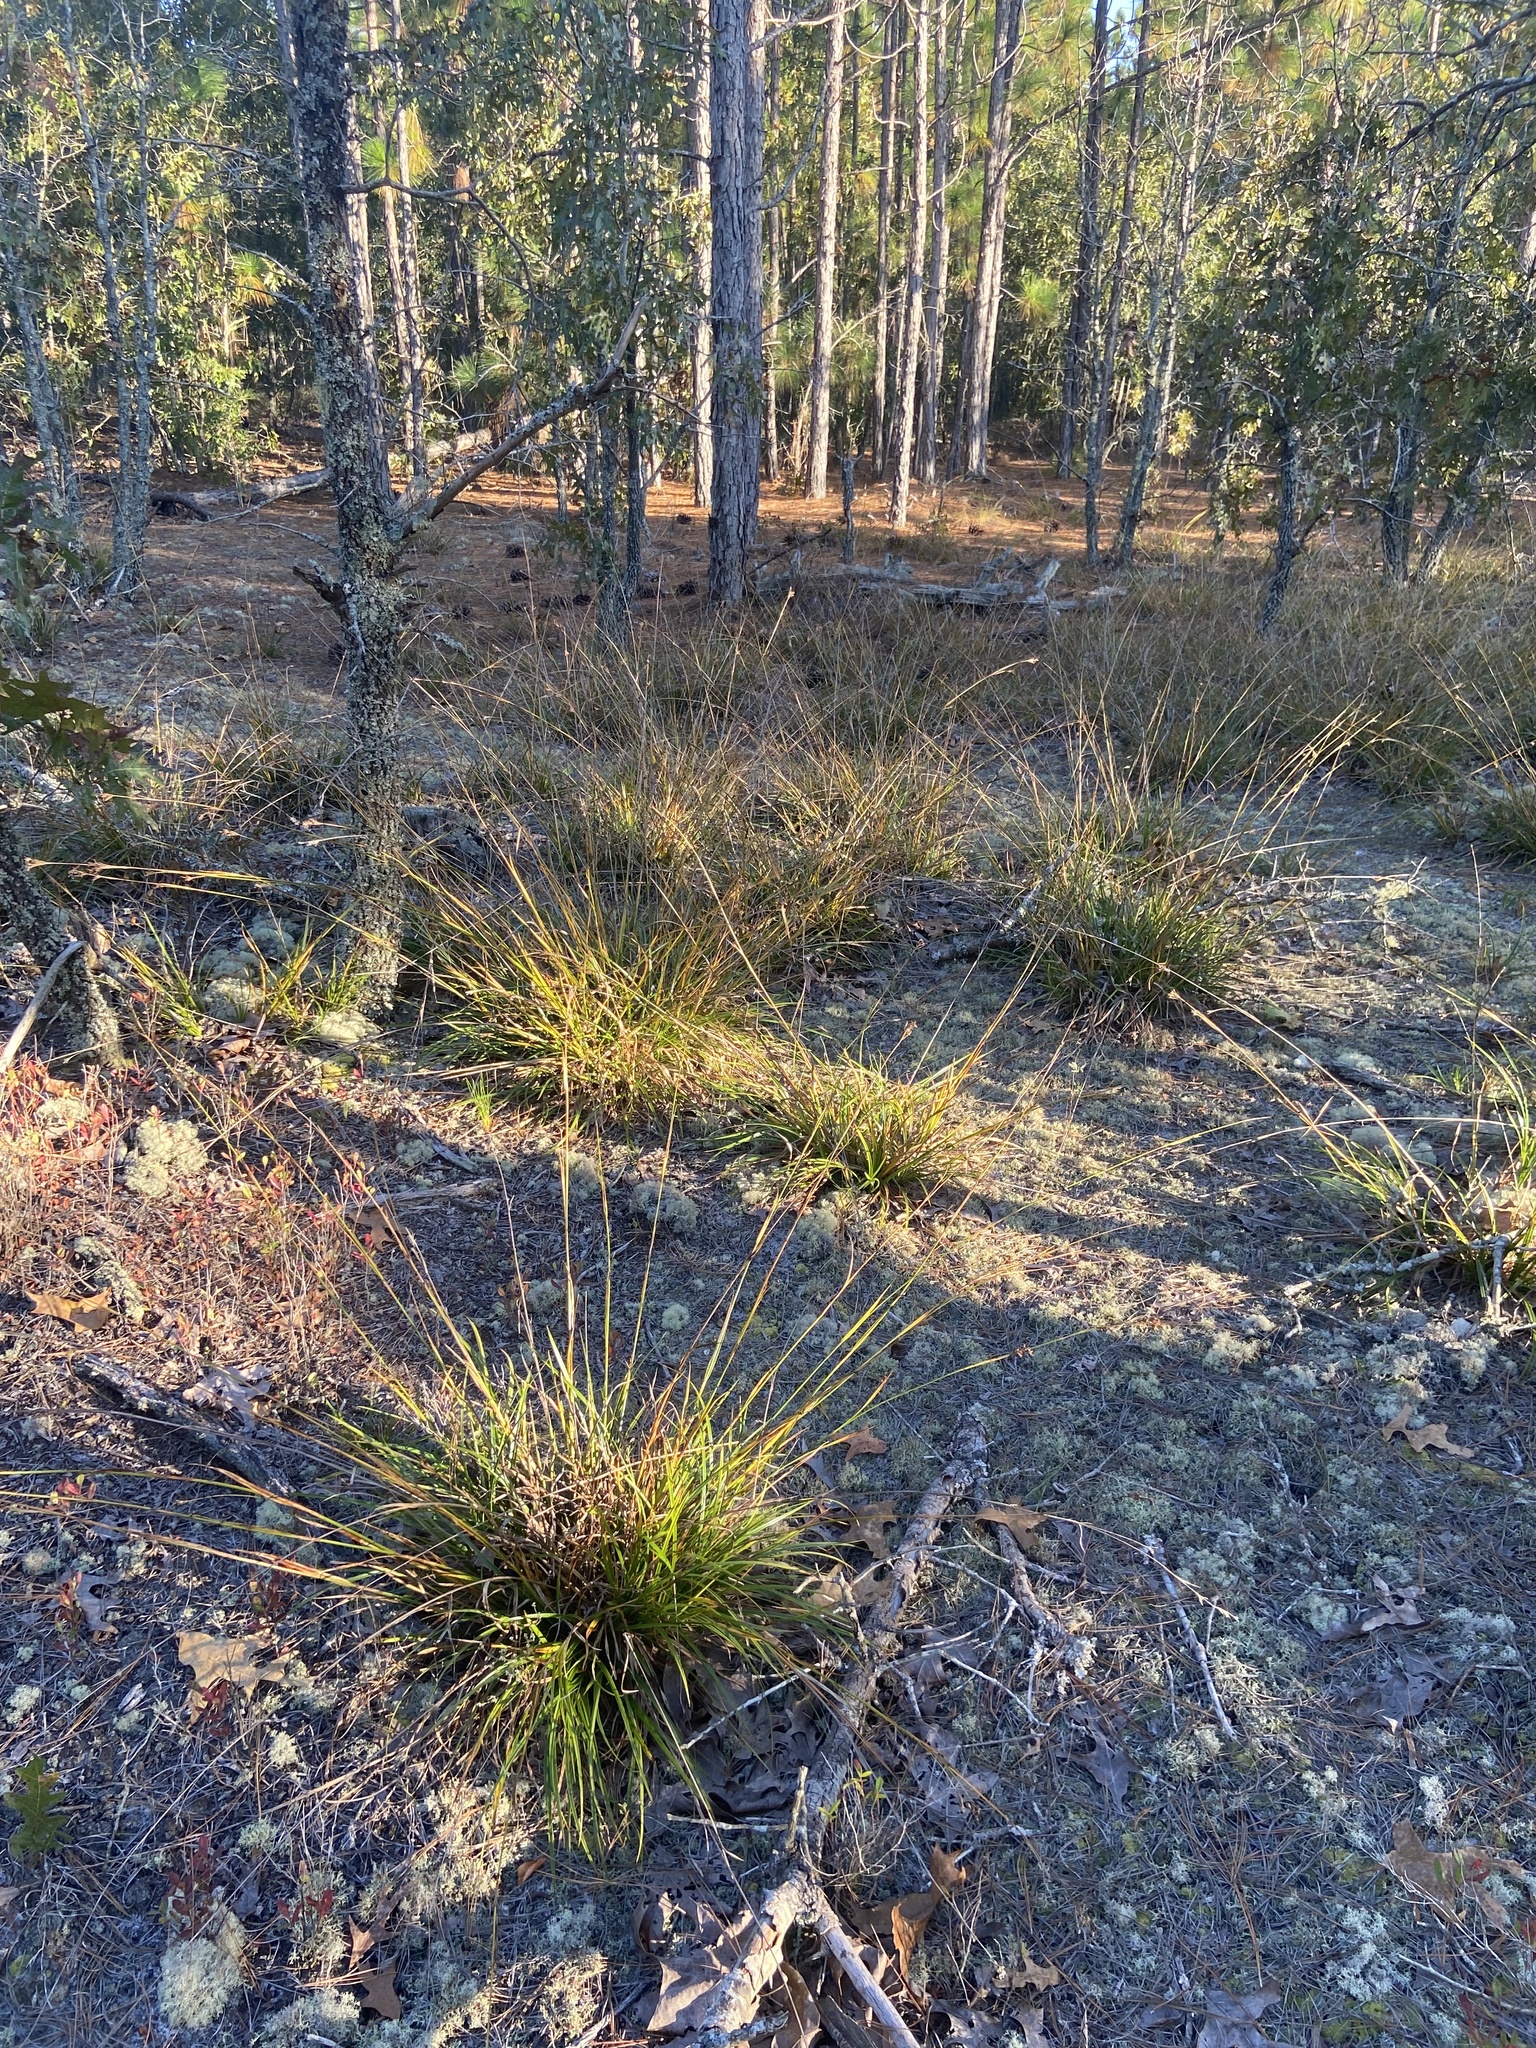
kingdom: Plantae
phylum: Tracheophyta
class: Liliopsida
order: Poales
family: Cyperaceae
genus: Rhynchospora
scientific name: Rhynchospora megalocarpa
